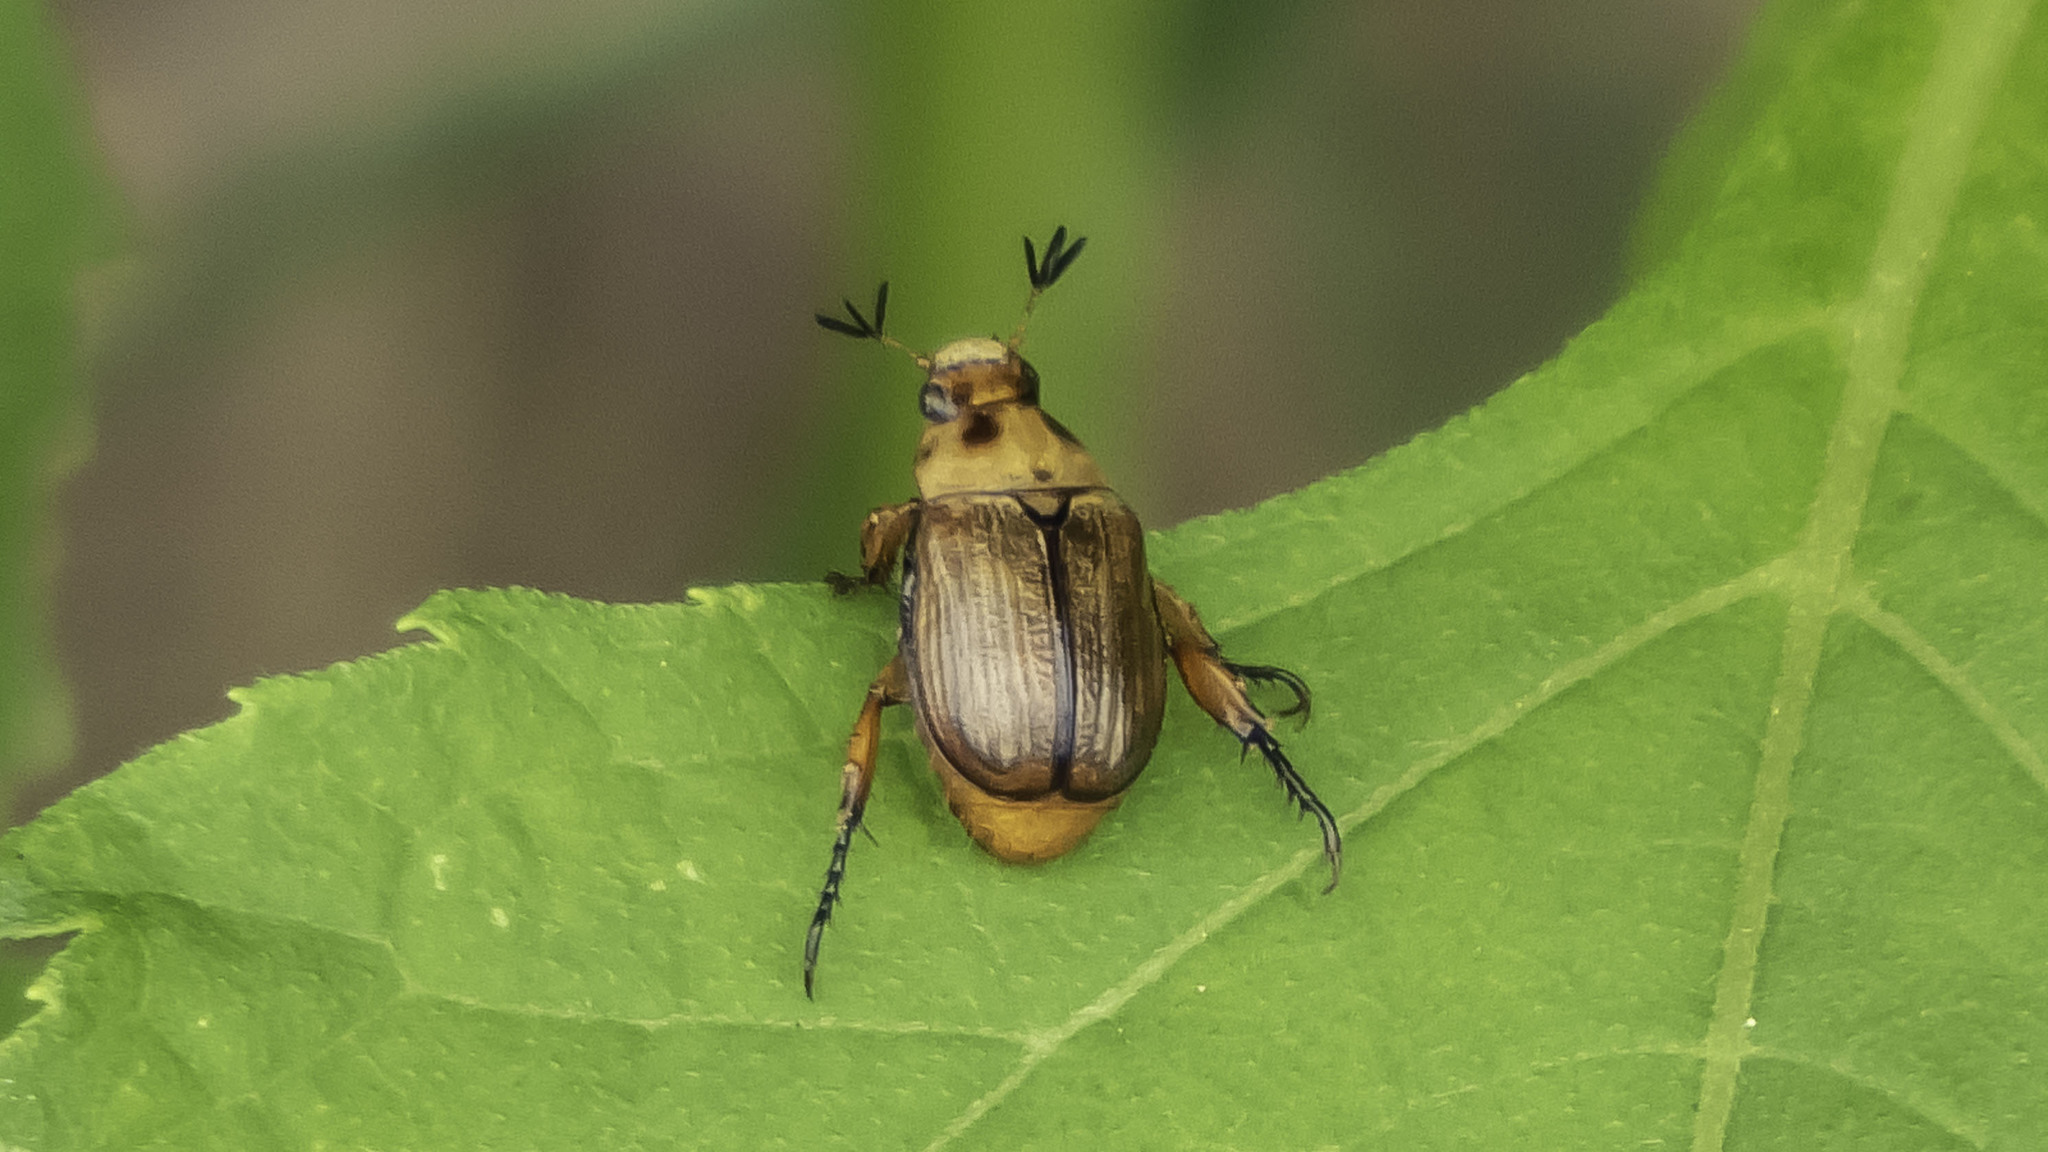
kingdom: Animalia
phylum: Arthropoda
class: Insecta
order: Coleoptera
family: Scarabaeidae
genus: Exomala
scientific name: Exomala orientalis
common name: Oriental beetle
